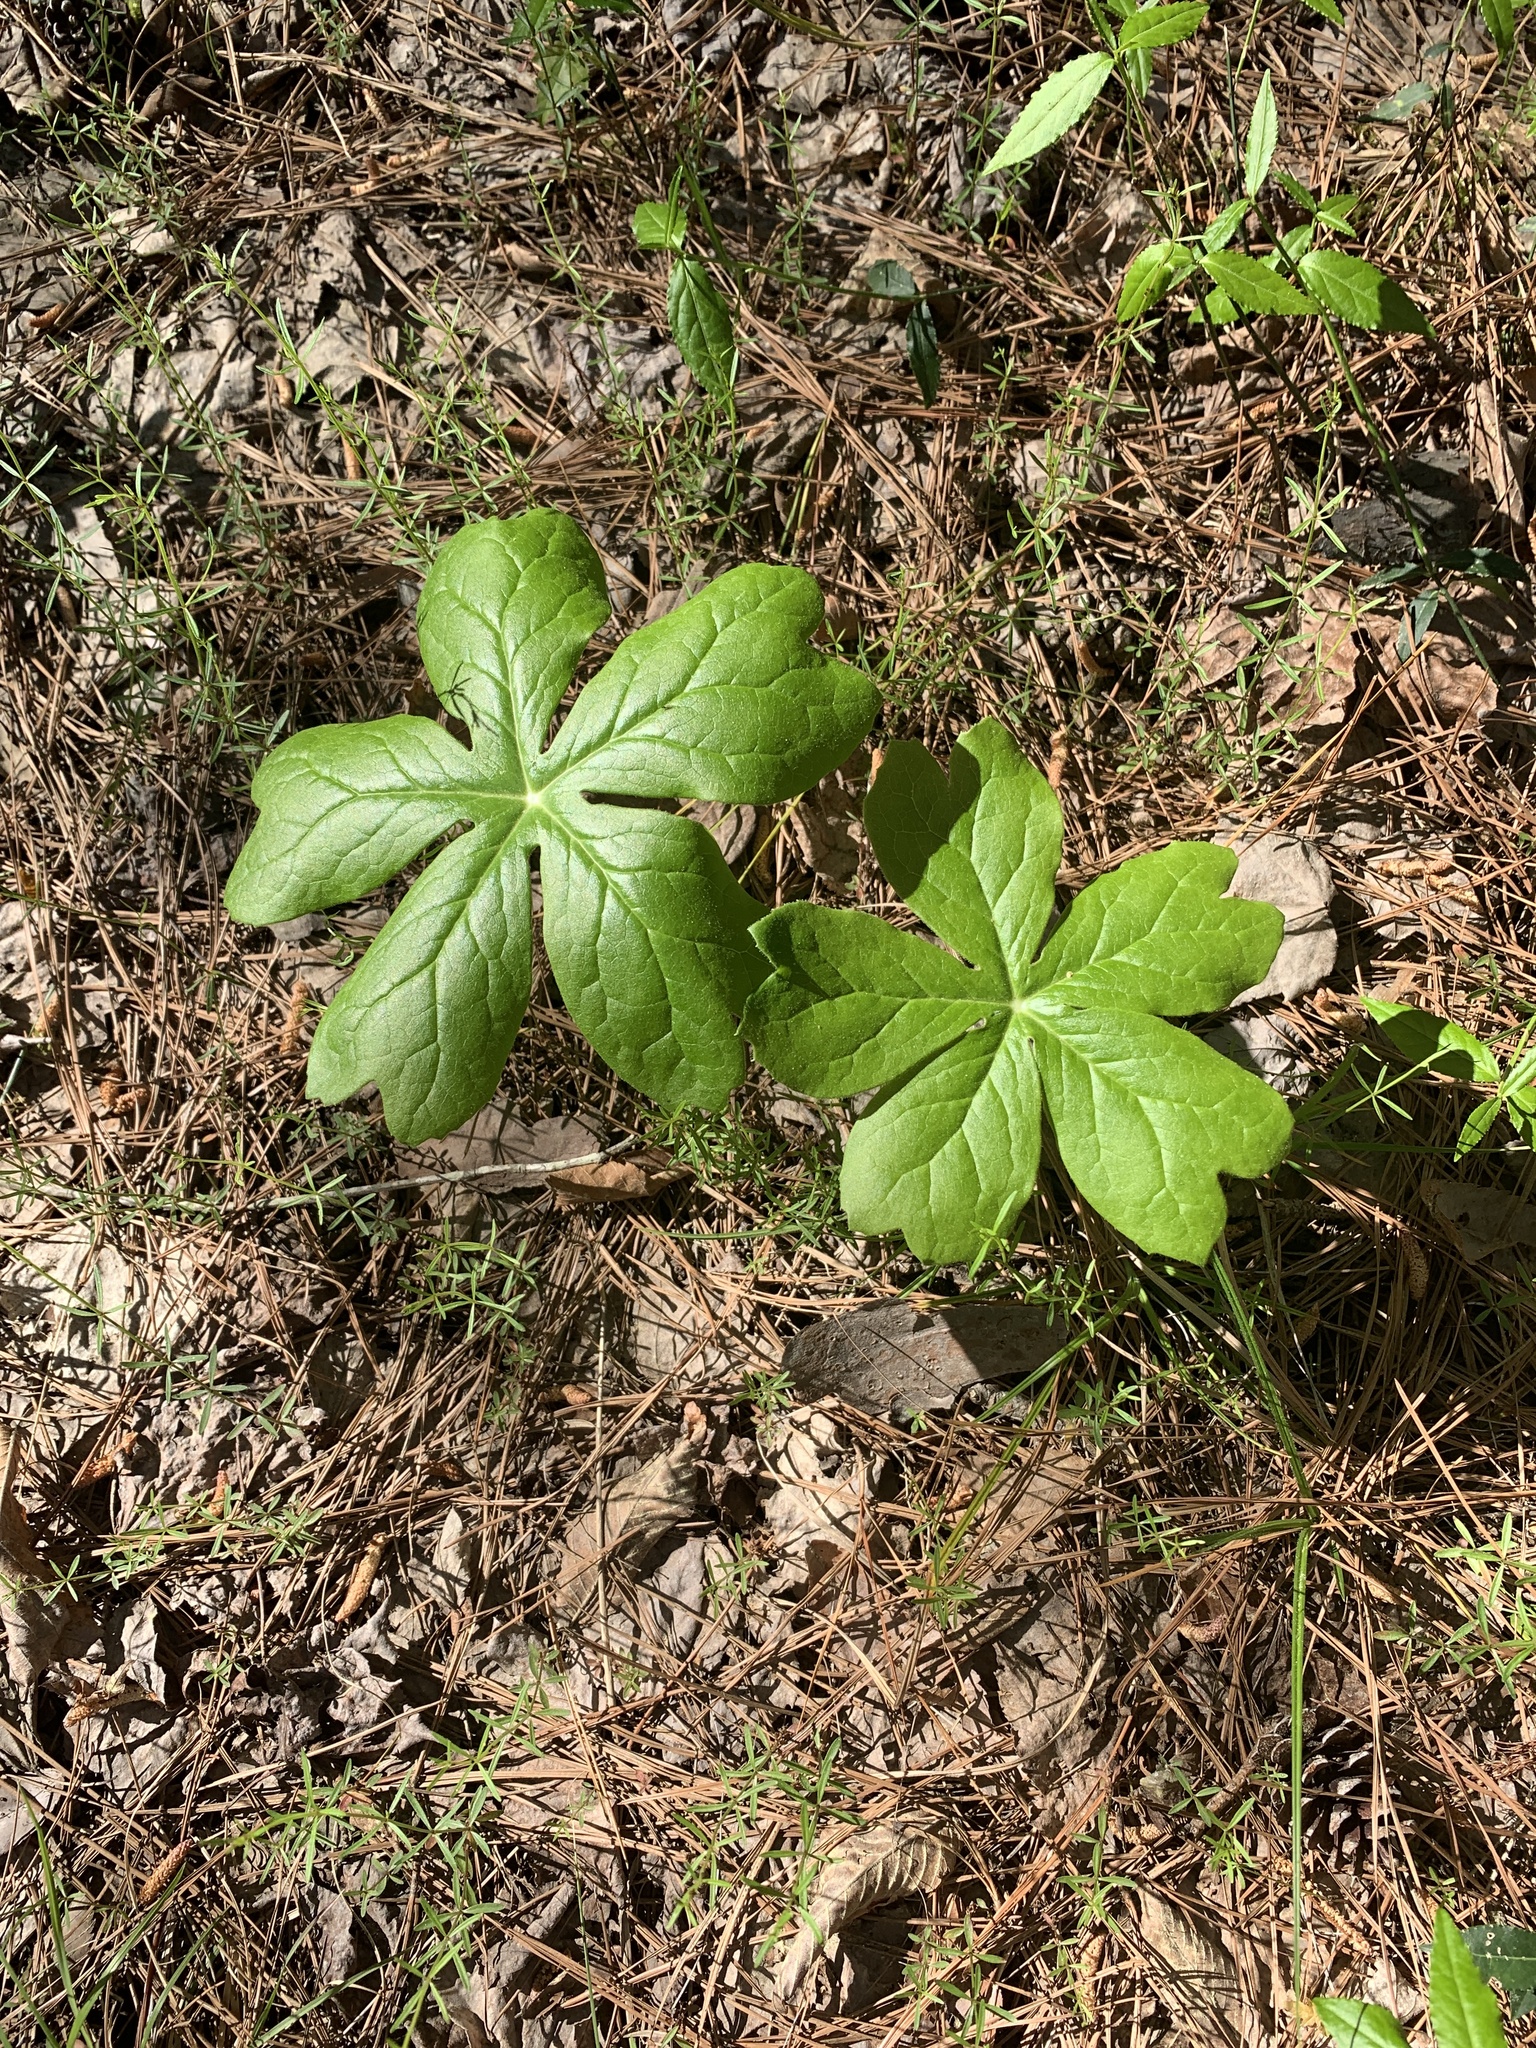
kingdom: Plantae
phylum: Tracheophyta
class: Magnoliopsida
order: Ranunculales
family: Berberidaceae
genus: Podophyllum
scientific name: Podophyllum peltatum
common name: Wild mandrake
